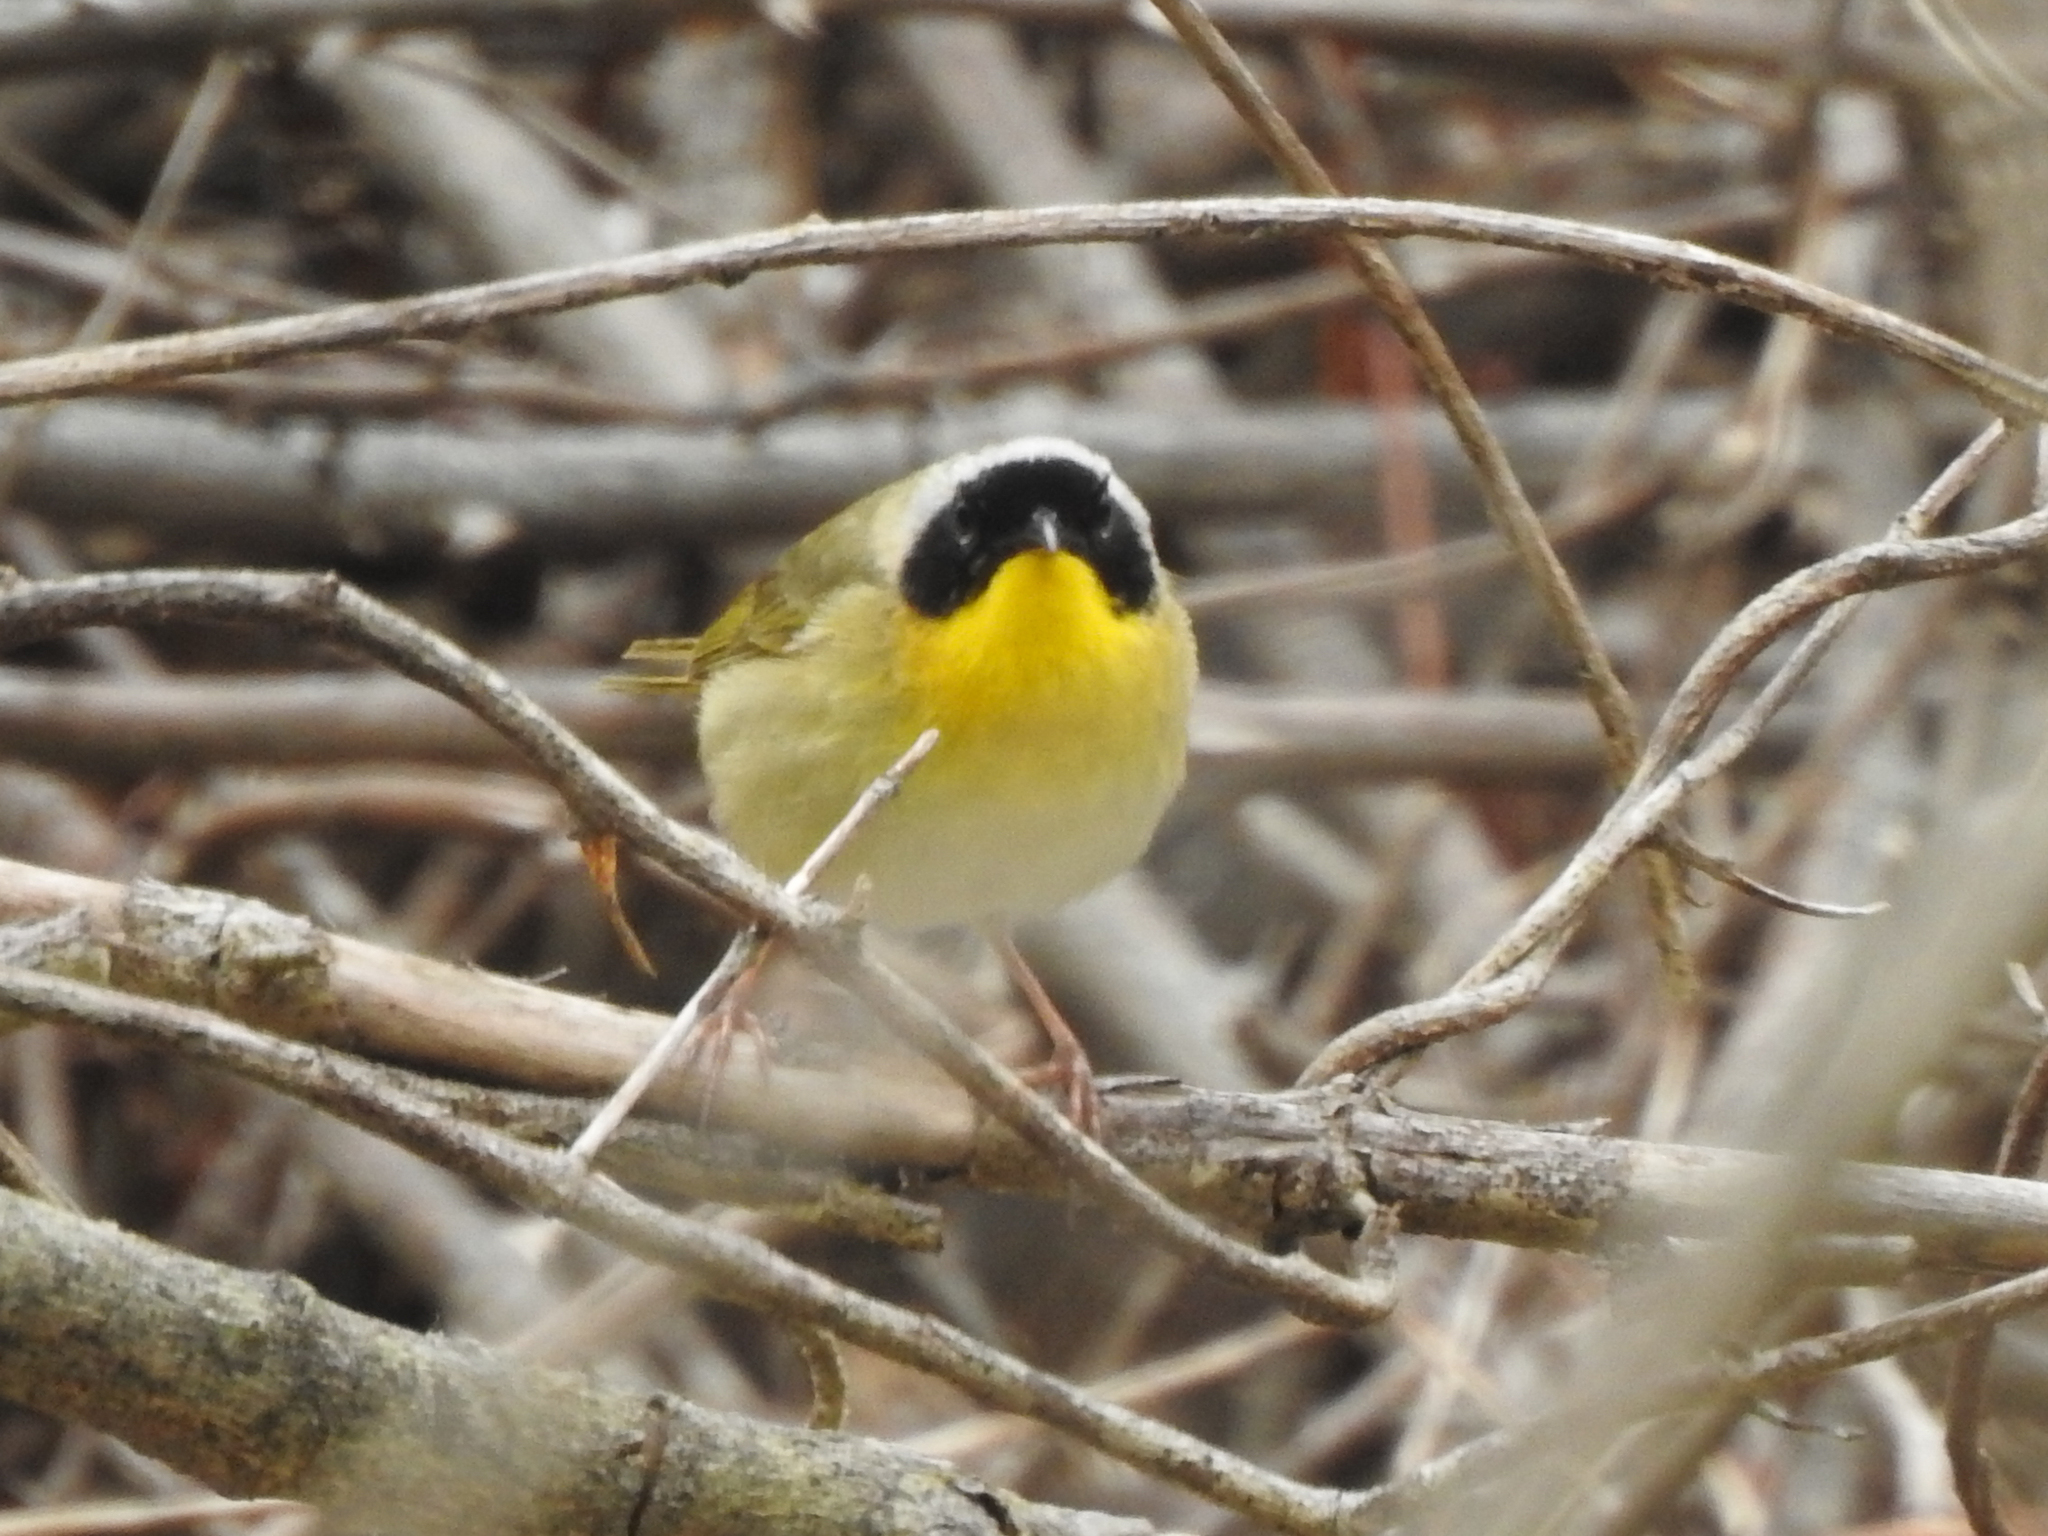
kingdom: Animalia
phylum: Chordata
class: Aves
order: Passeriformes
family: Parulidae
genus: Geothlypis
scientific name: Geothlypis trichas
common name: Common yellowthroat
